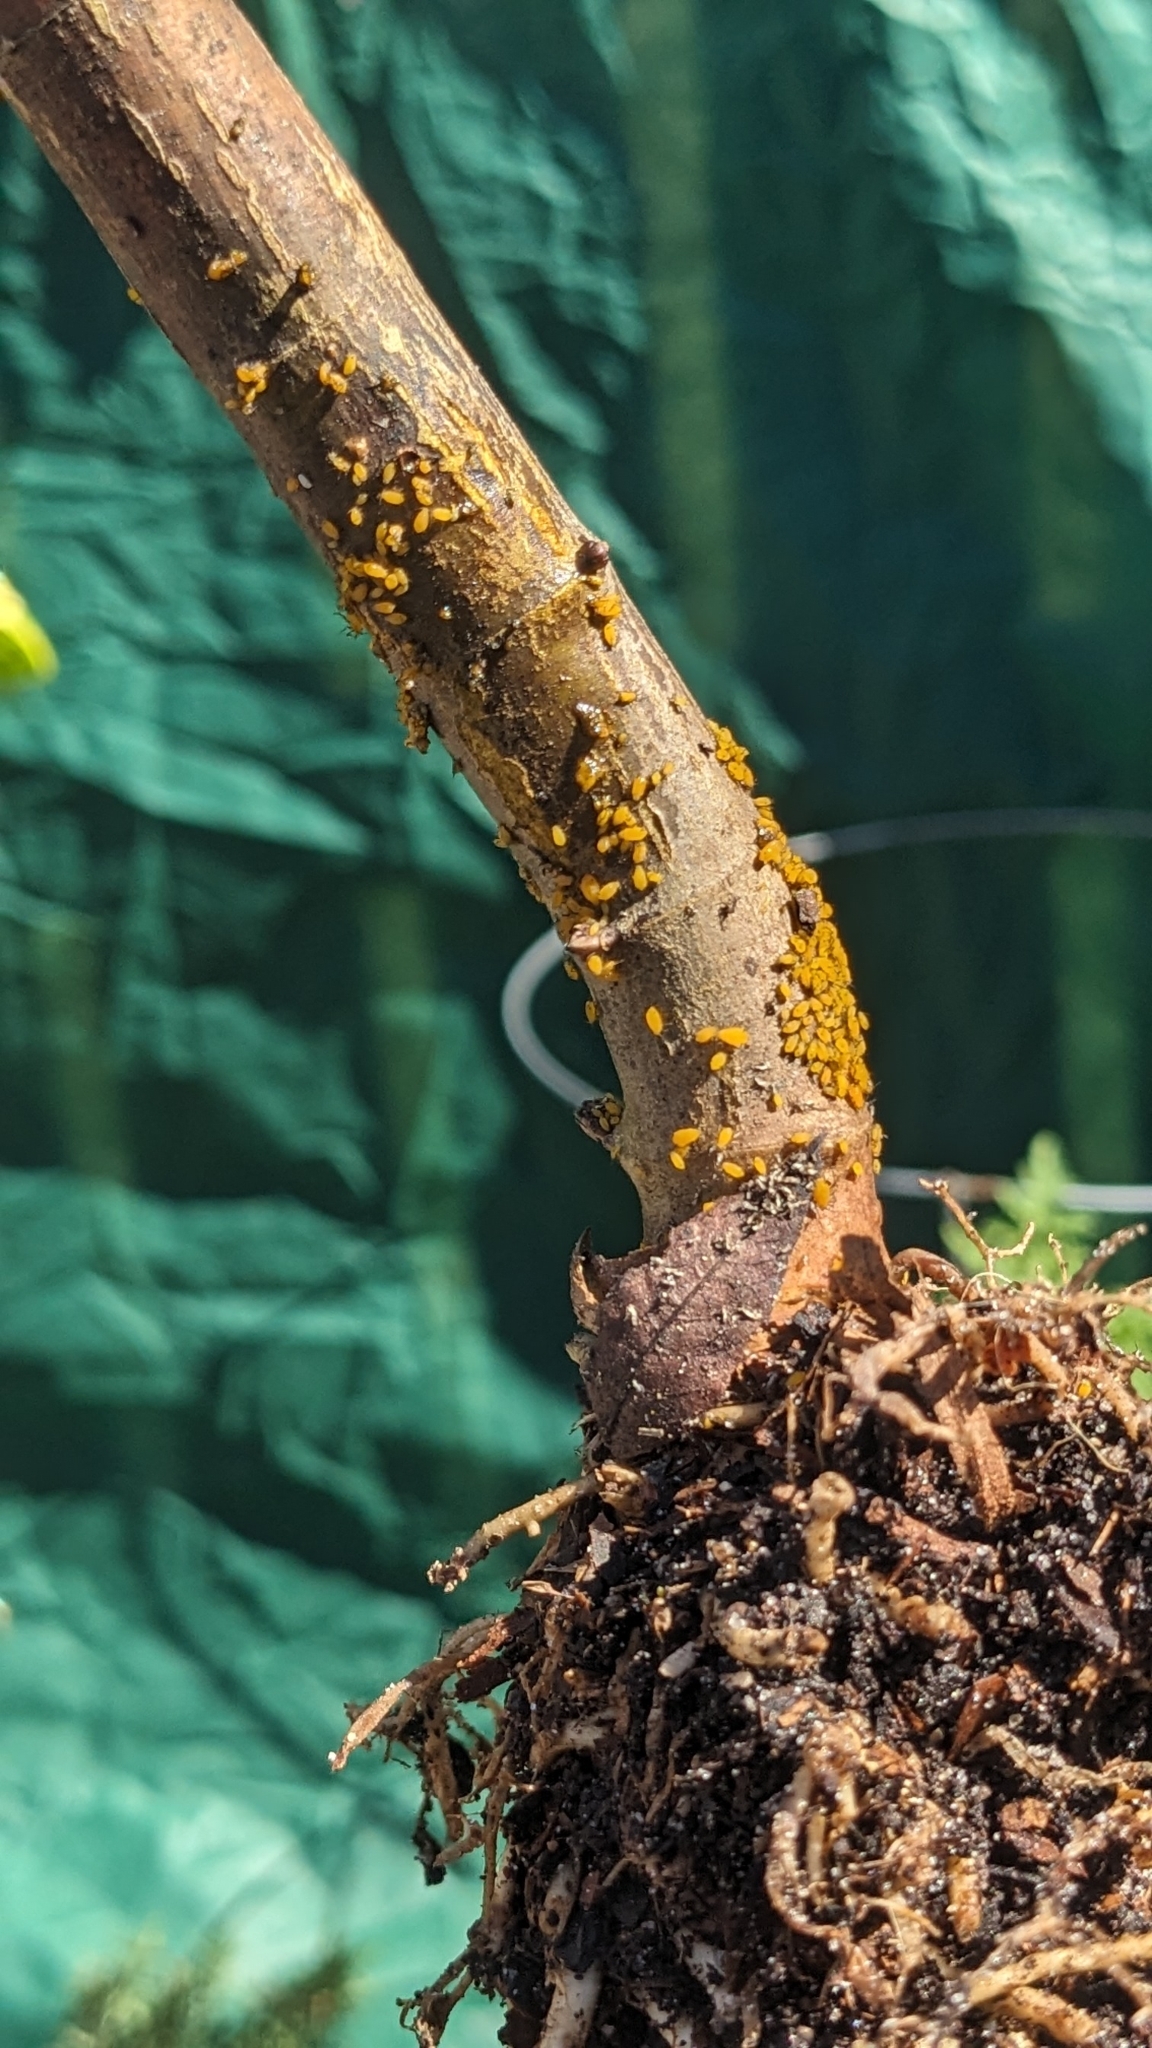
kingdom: Animalia
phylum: Arthropoda
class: Insecta
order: Hemiptera
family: Aphididae
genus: Aphis
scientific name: Aphis nerii
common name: Oleander aphid
